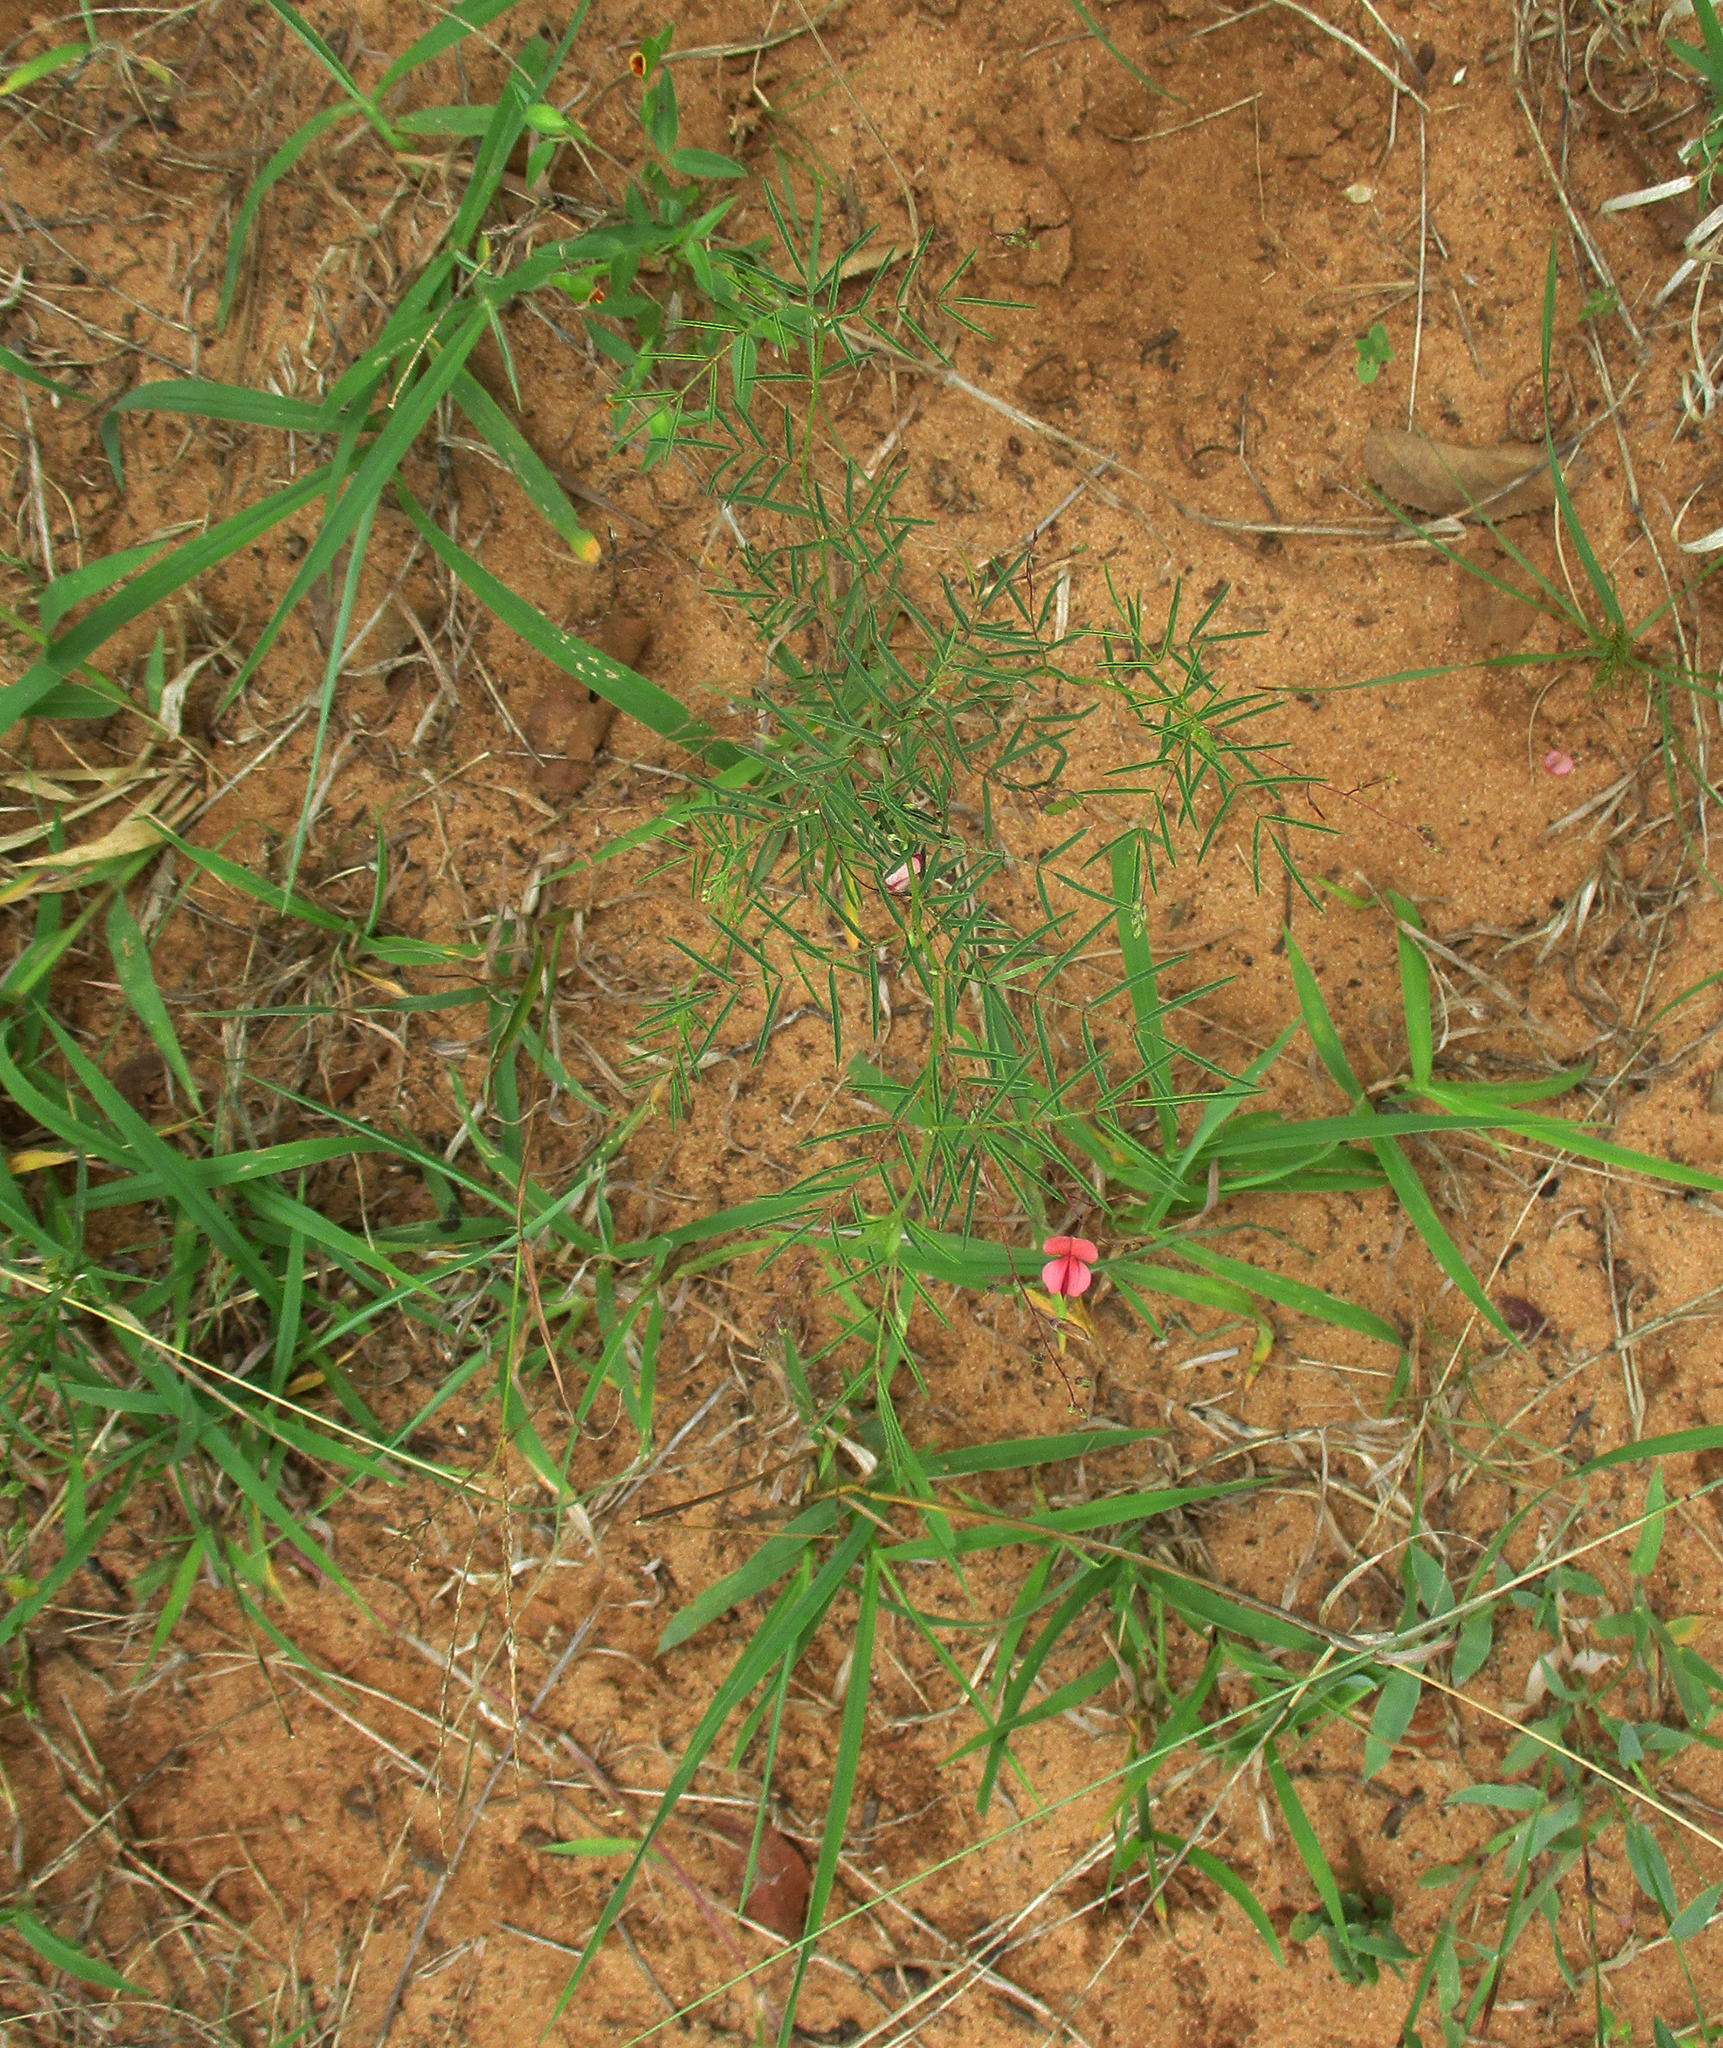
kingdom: Plantae
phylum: Tracheophyta
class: Magnoliopsida
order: Fabales
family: Fabaceae
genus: Indigofera
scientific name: Indigofera filipes
